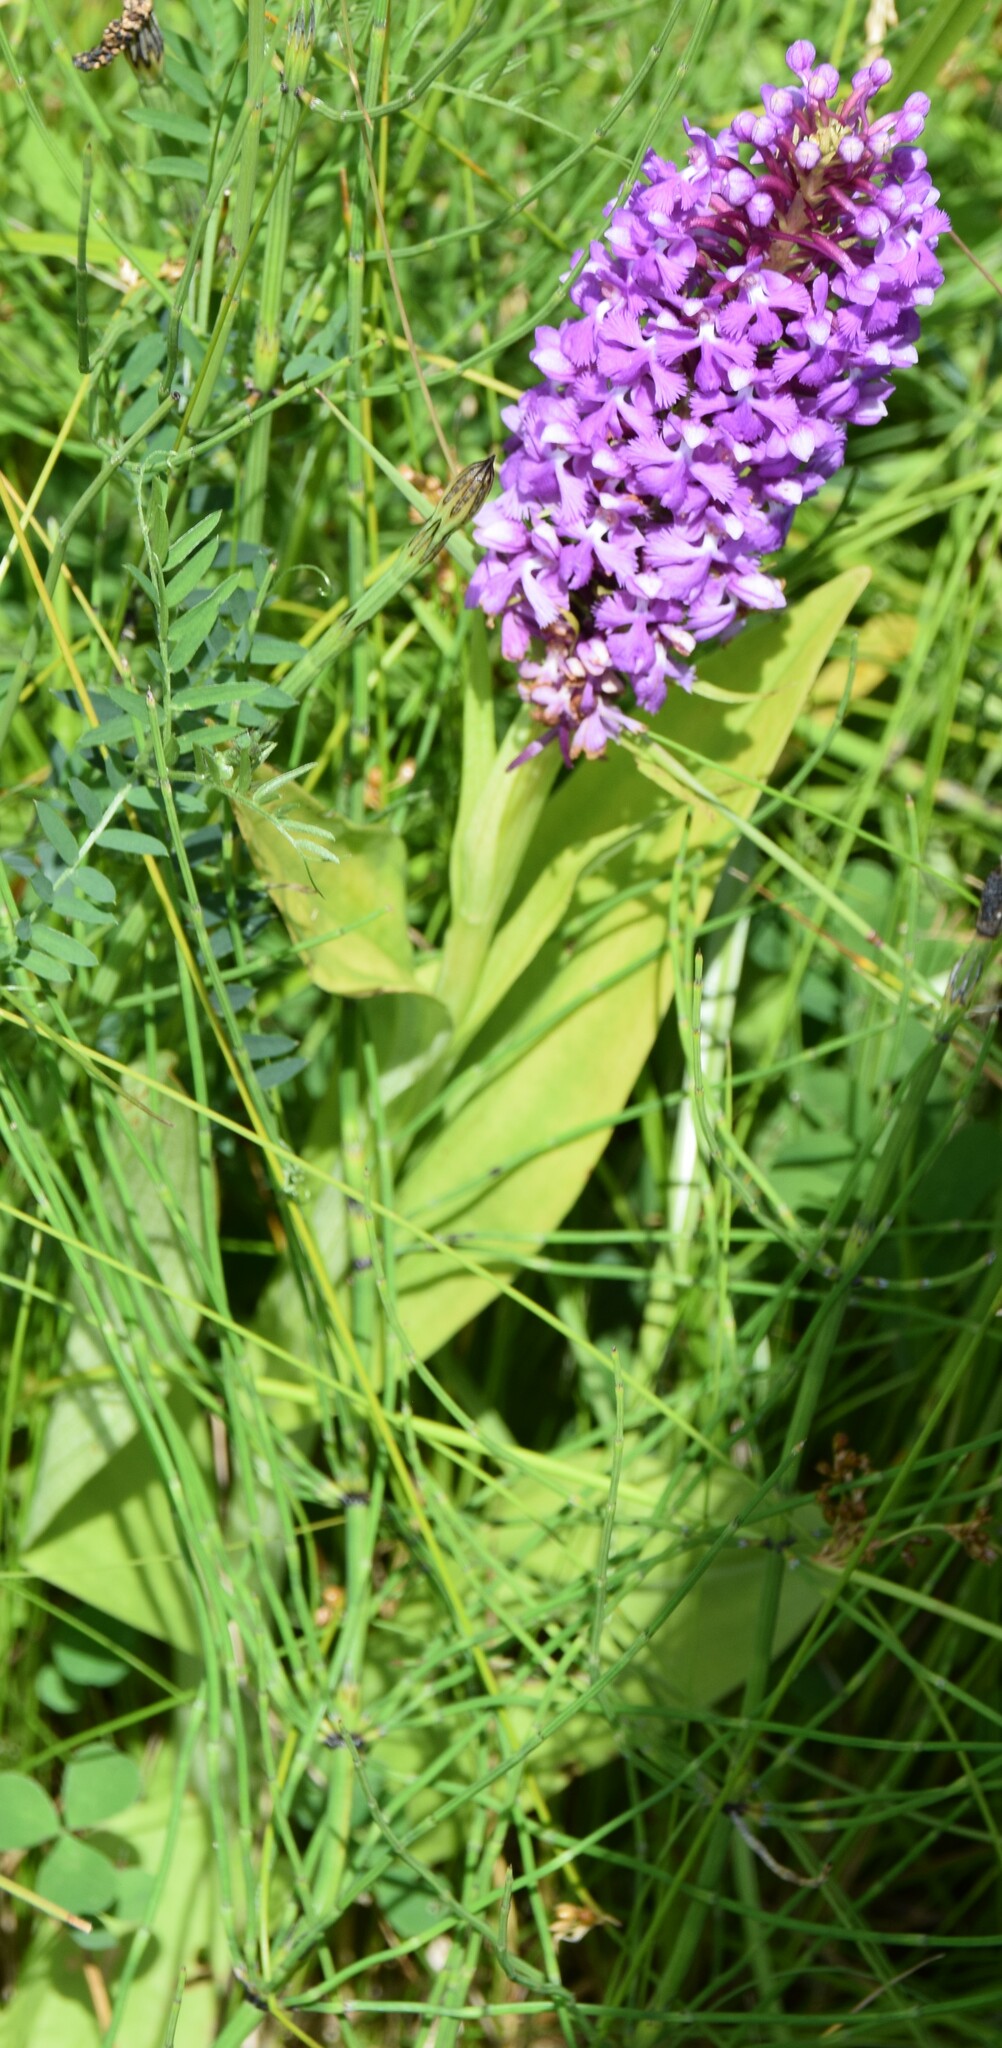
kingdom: Plantae
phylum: Tracheophyta
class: Liliopsida
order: Asparagales
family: Orchidaceae
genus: Platanthera
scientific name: Platanthera psycodes
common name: Lesser purple fringed orchid
